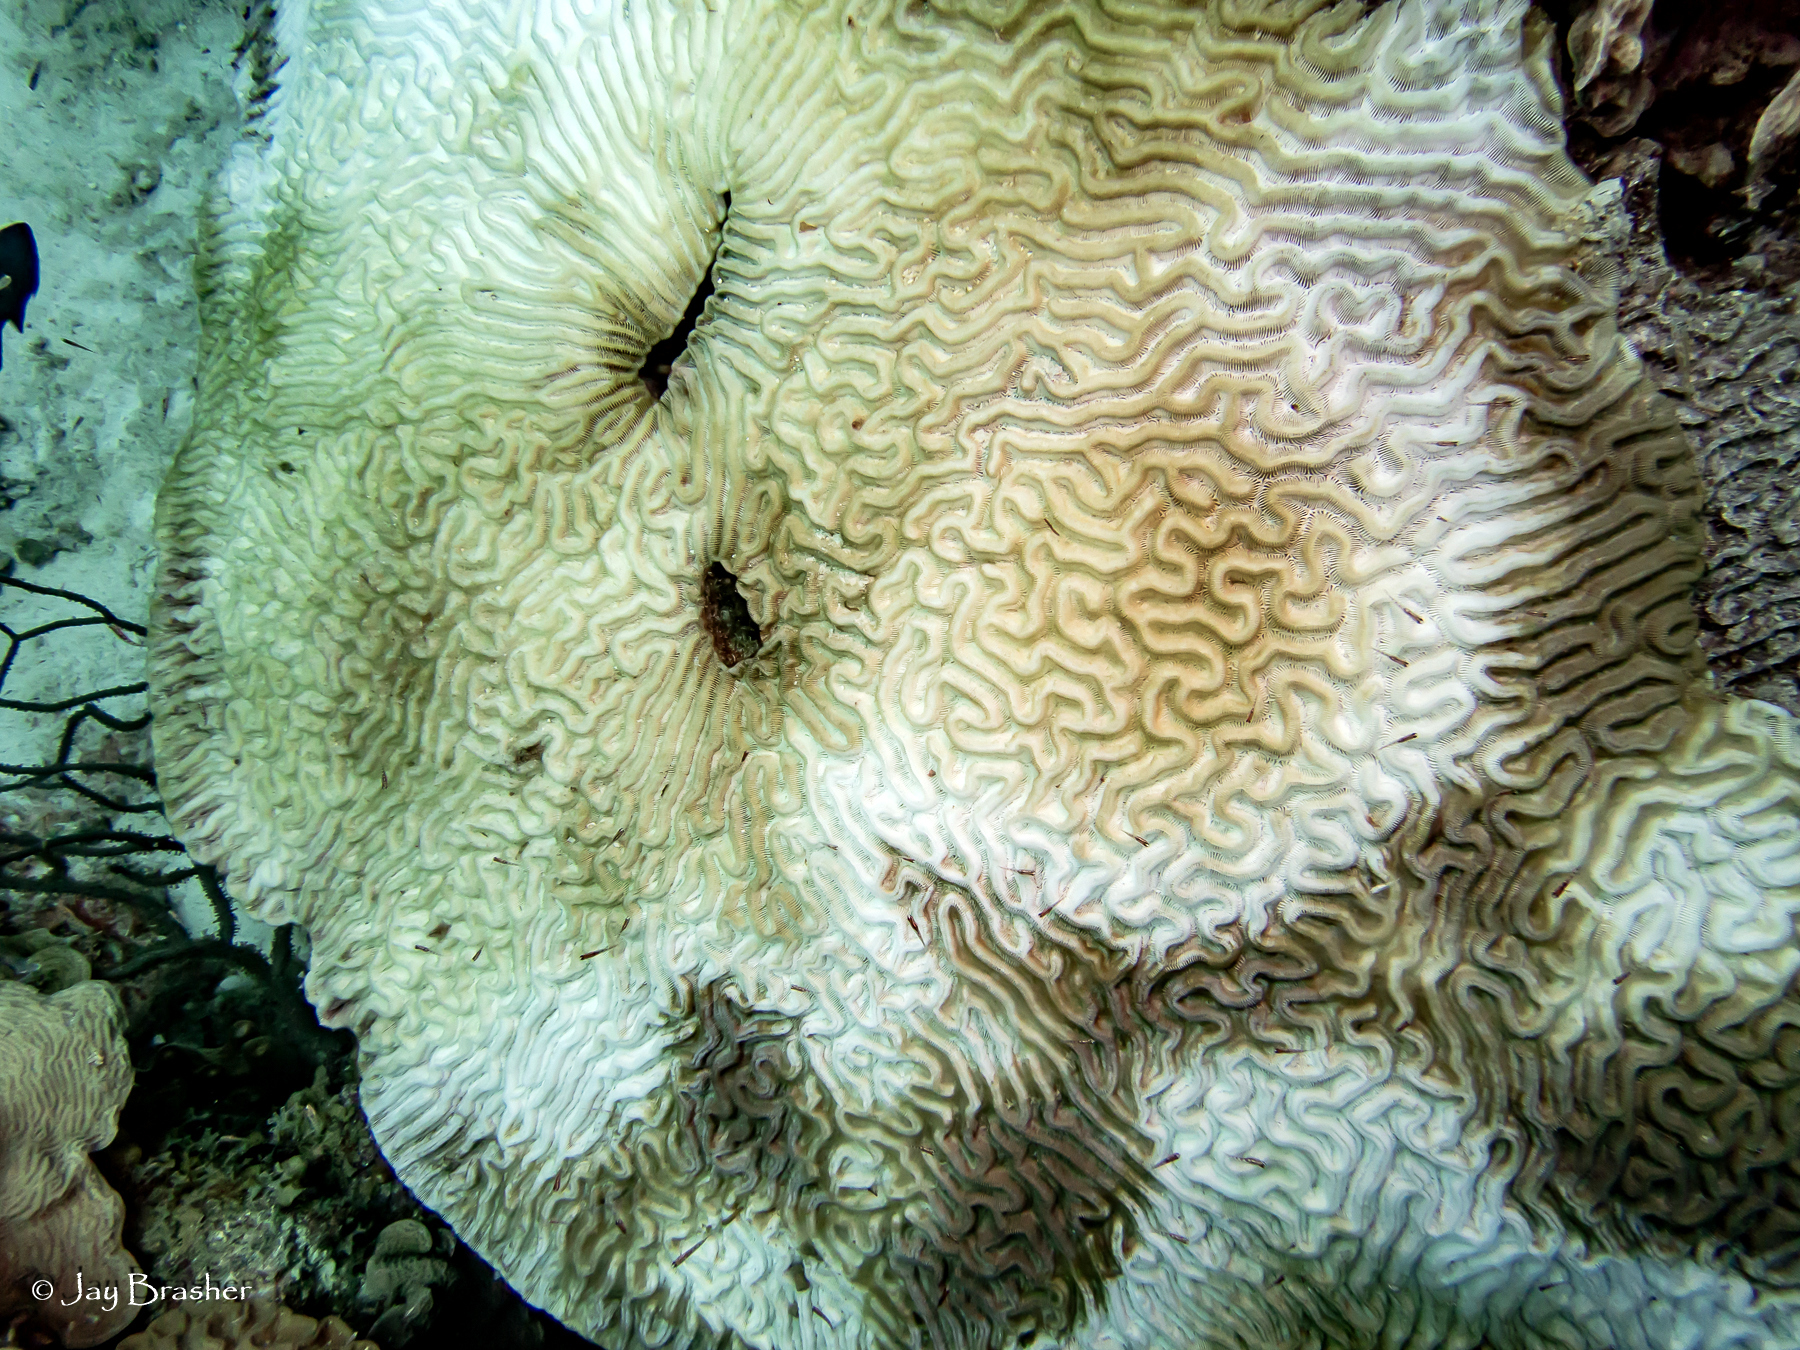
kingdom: Animalia
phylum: Cnidaria
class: Anthozoa
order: Scleractinia
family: Faviidae
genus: Colpophyllia
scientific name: Colpophyllia natans
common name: Boulder brain coral
